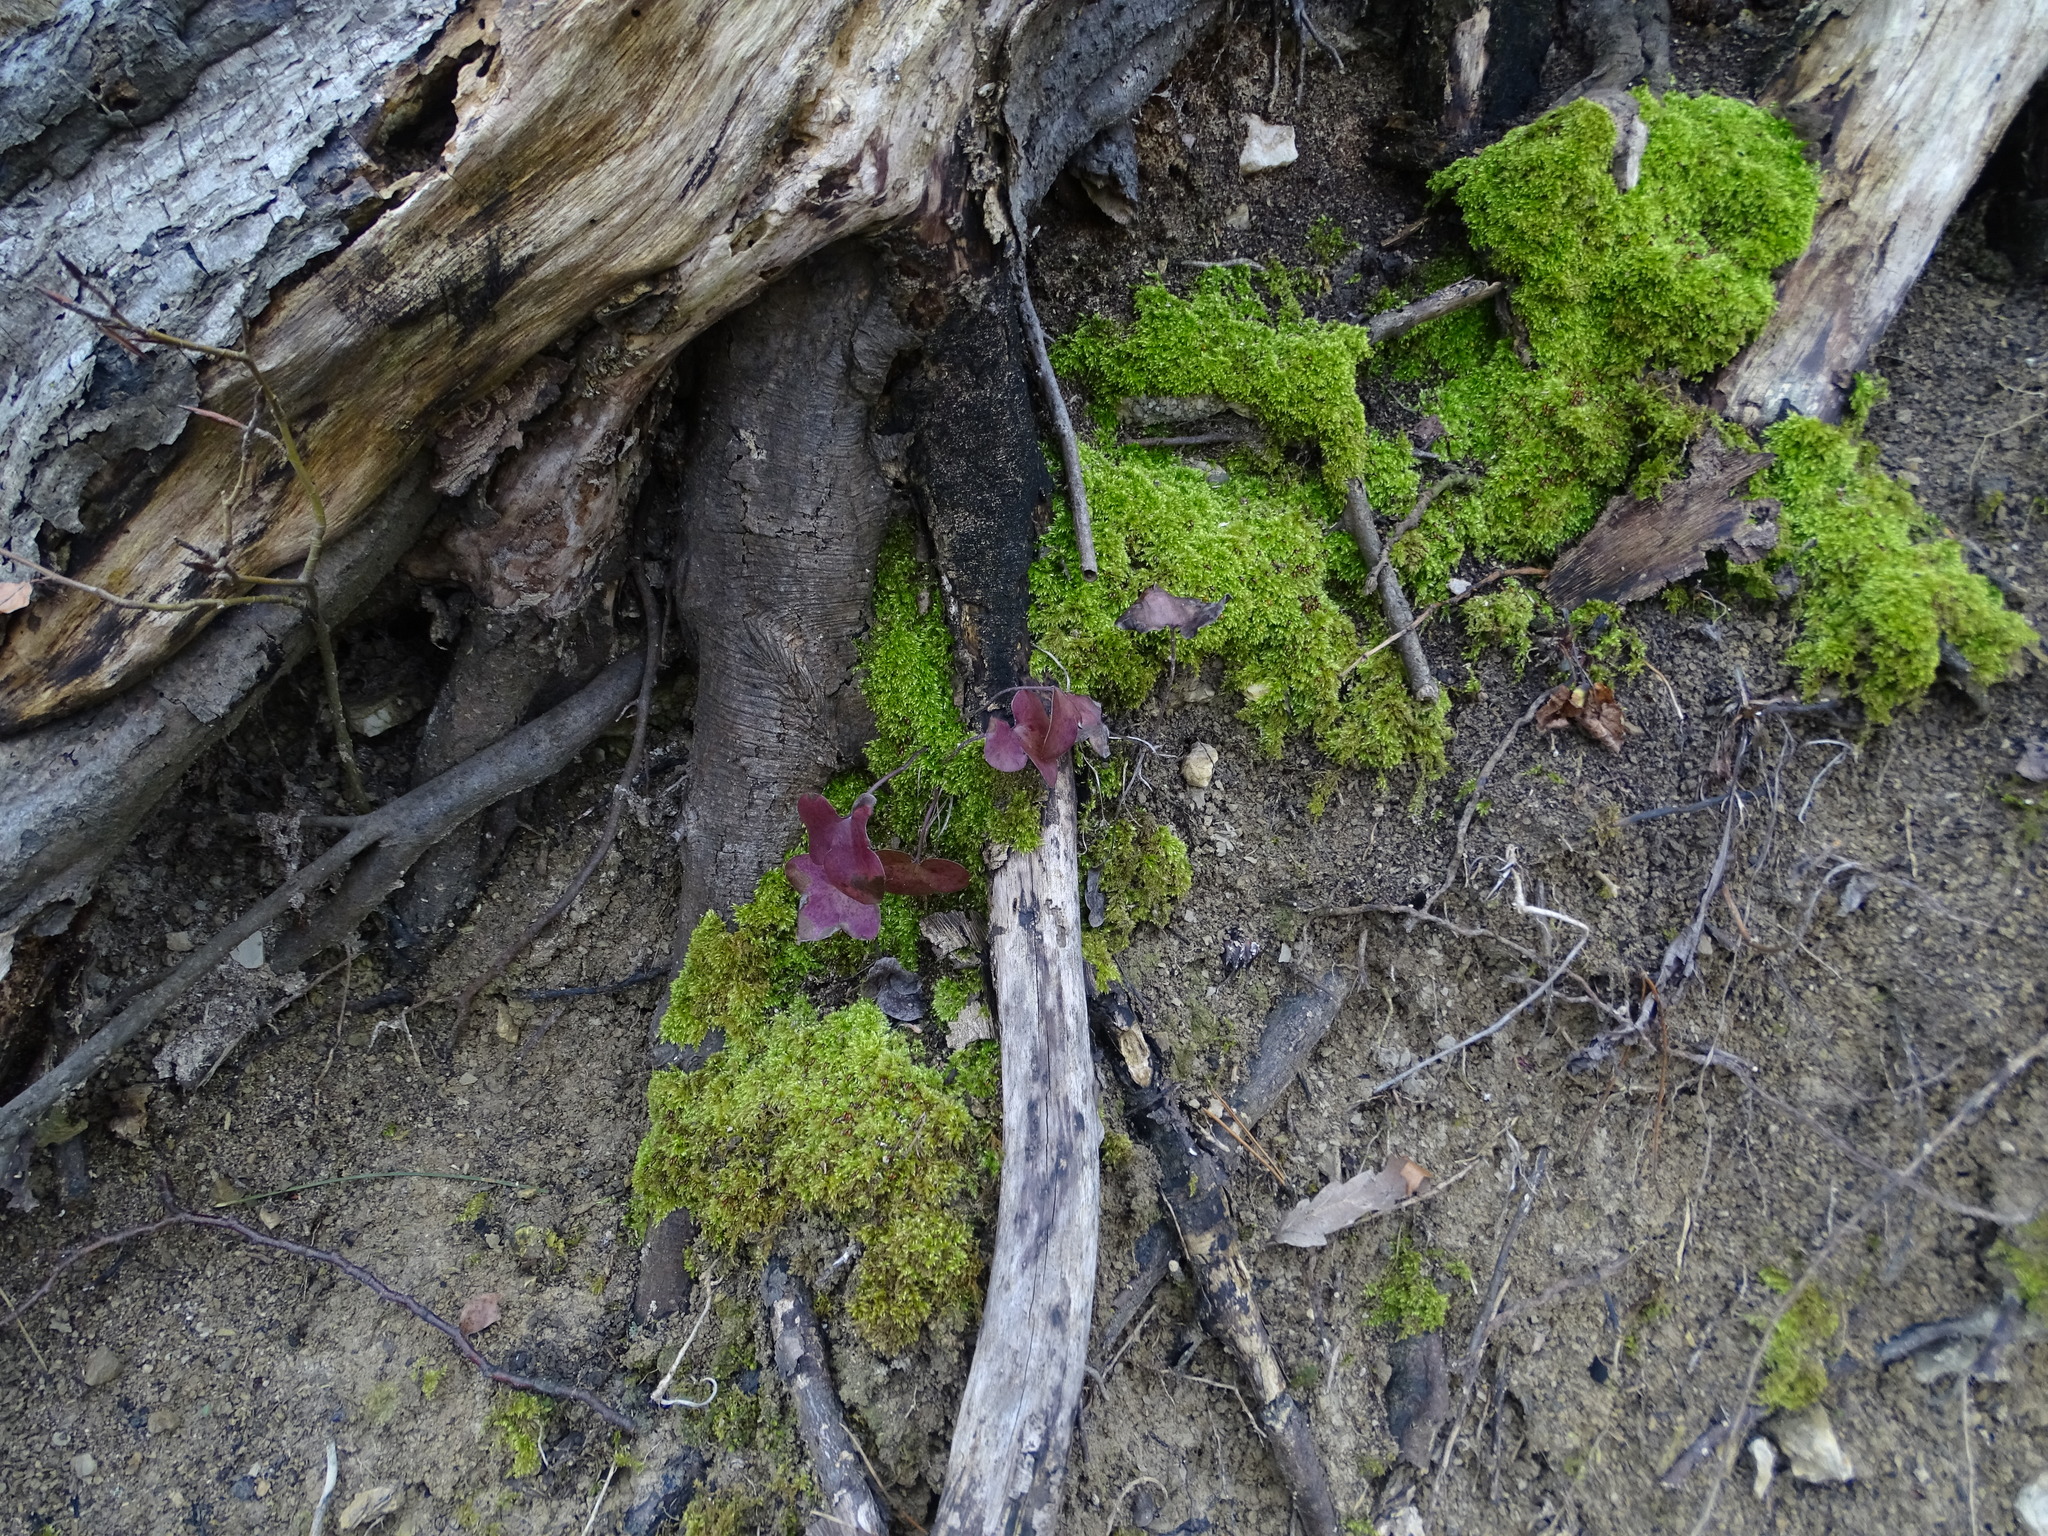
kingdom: Plantae
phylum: Tracheophyta
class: Magnoliopsida
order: Ranunculales
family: Ranunculaceae
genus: Hepatica
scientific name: Hepatica nobilis
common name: Liverleaf
